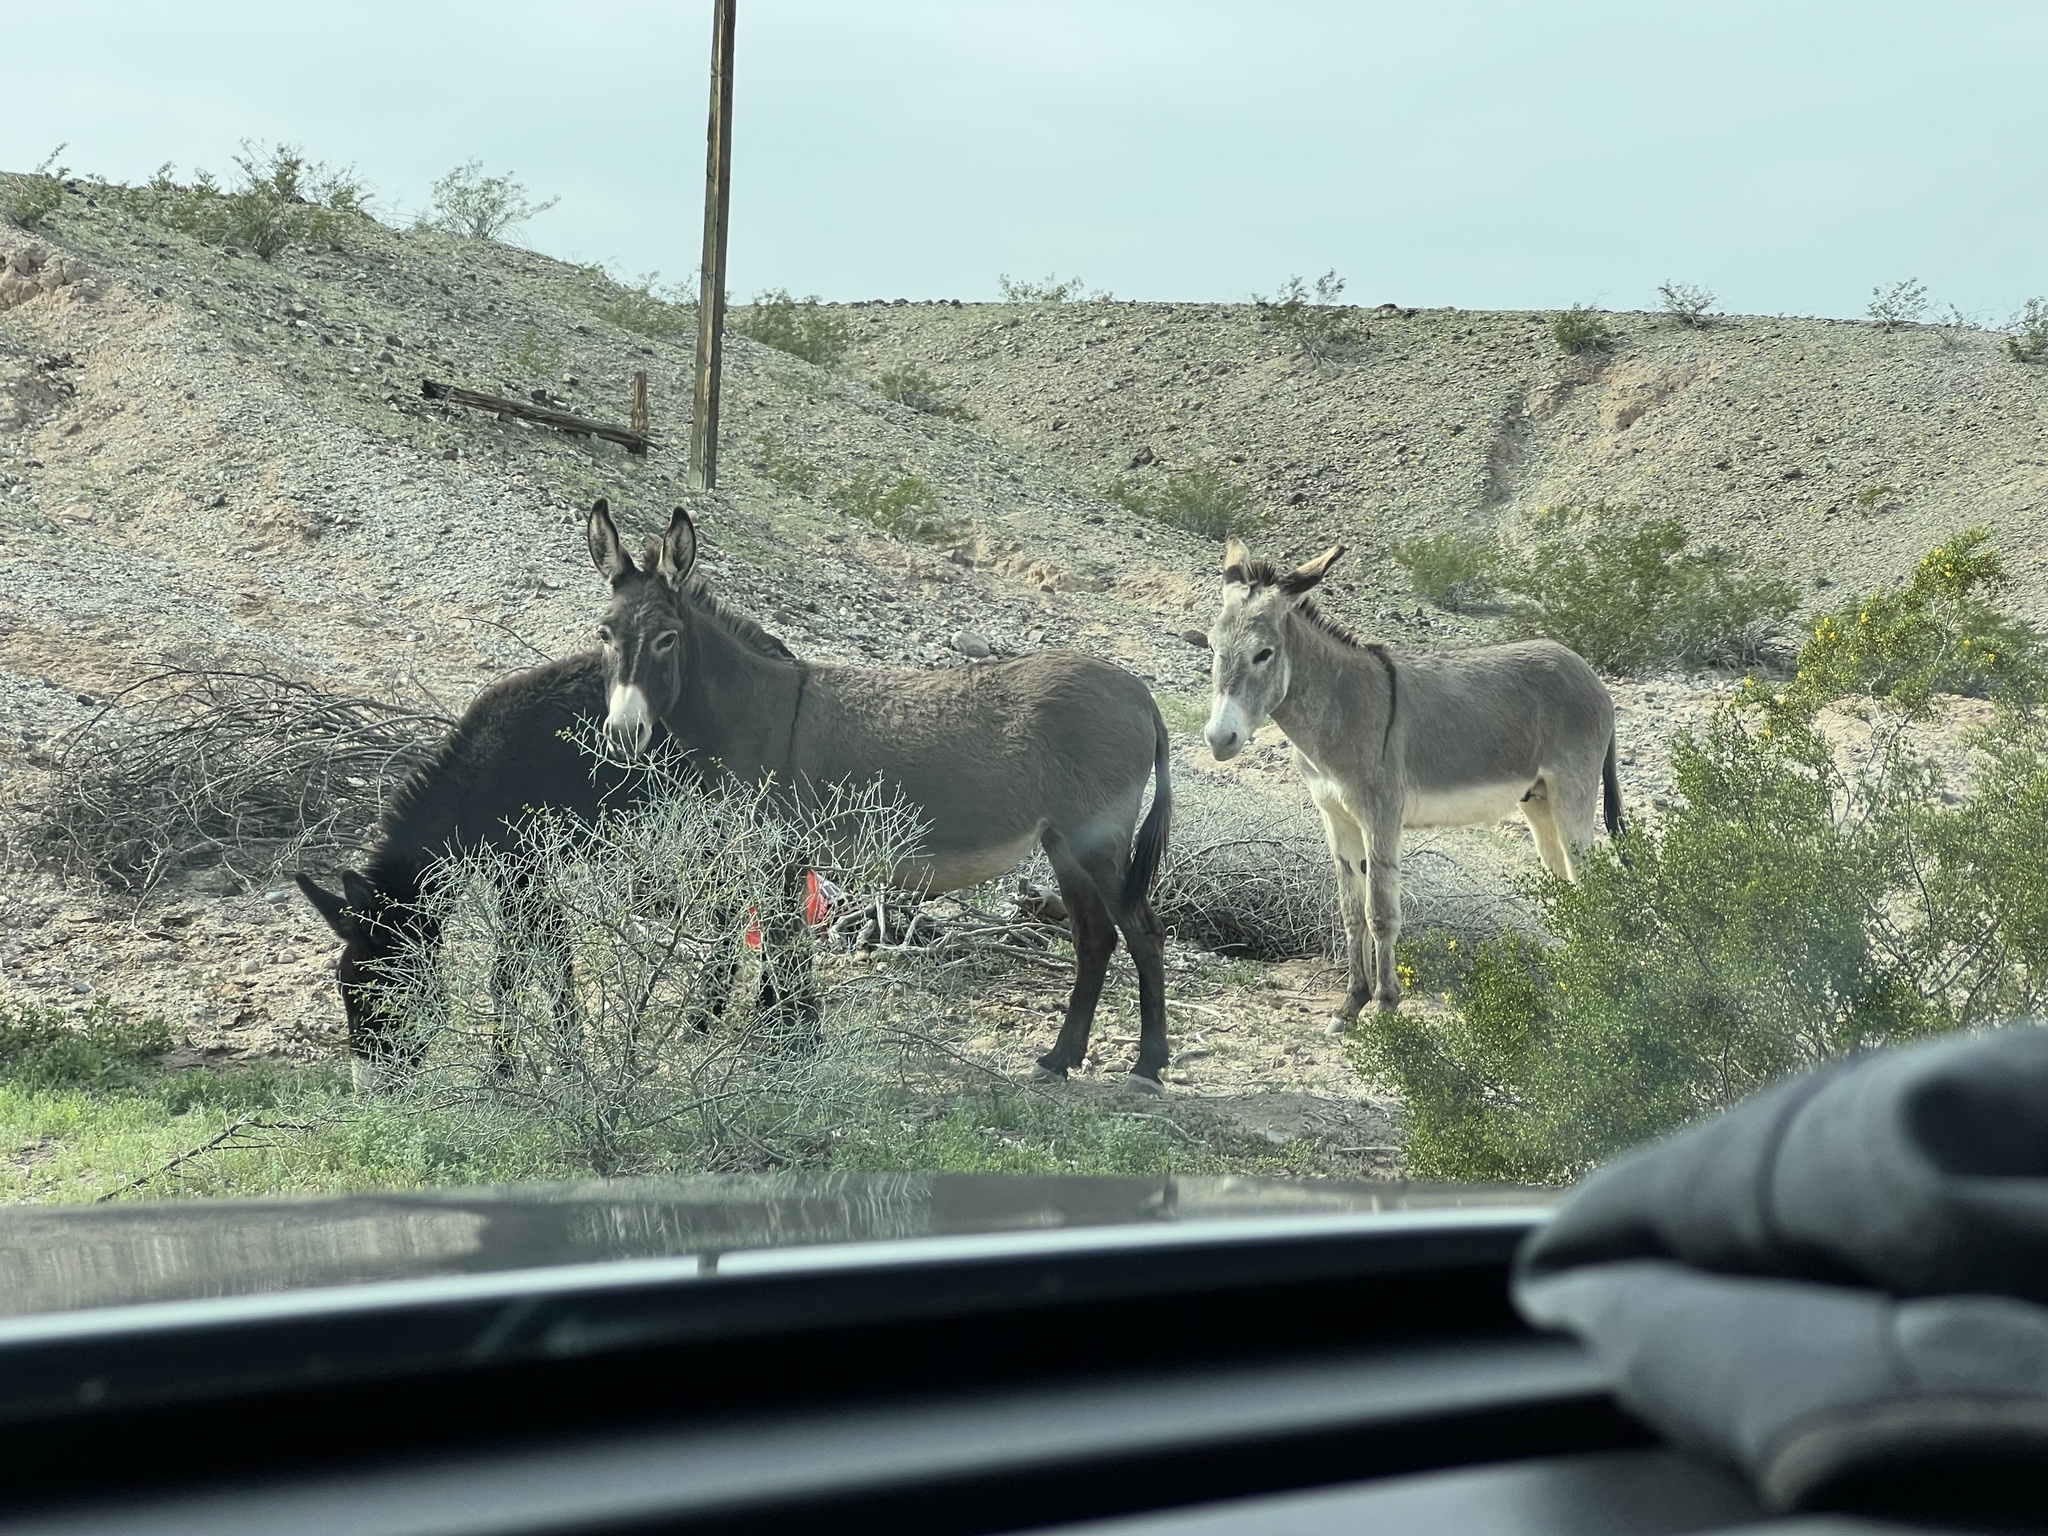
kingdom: Animalia
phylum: Chordata
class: Mammalia
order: Perissodactyla
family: Equidae
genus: Equus
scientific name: Equus asinus
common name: Ass
